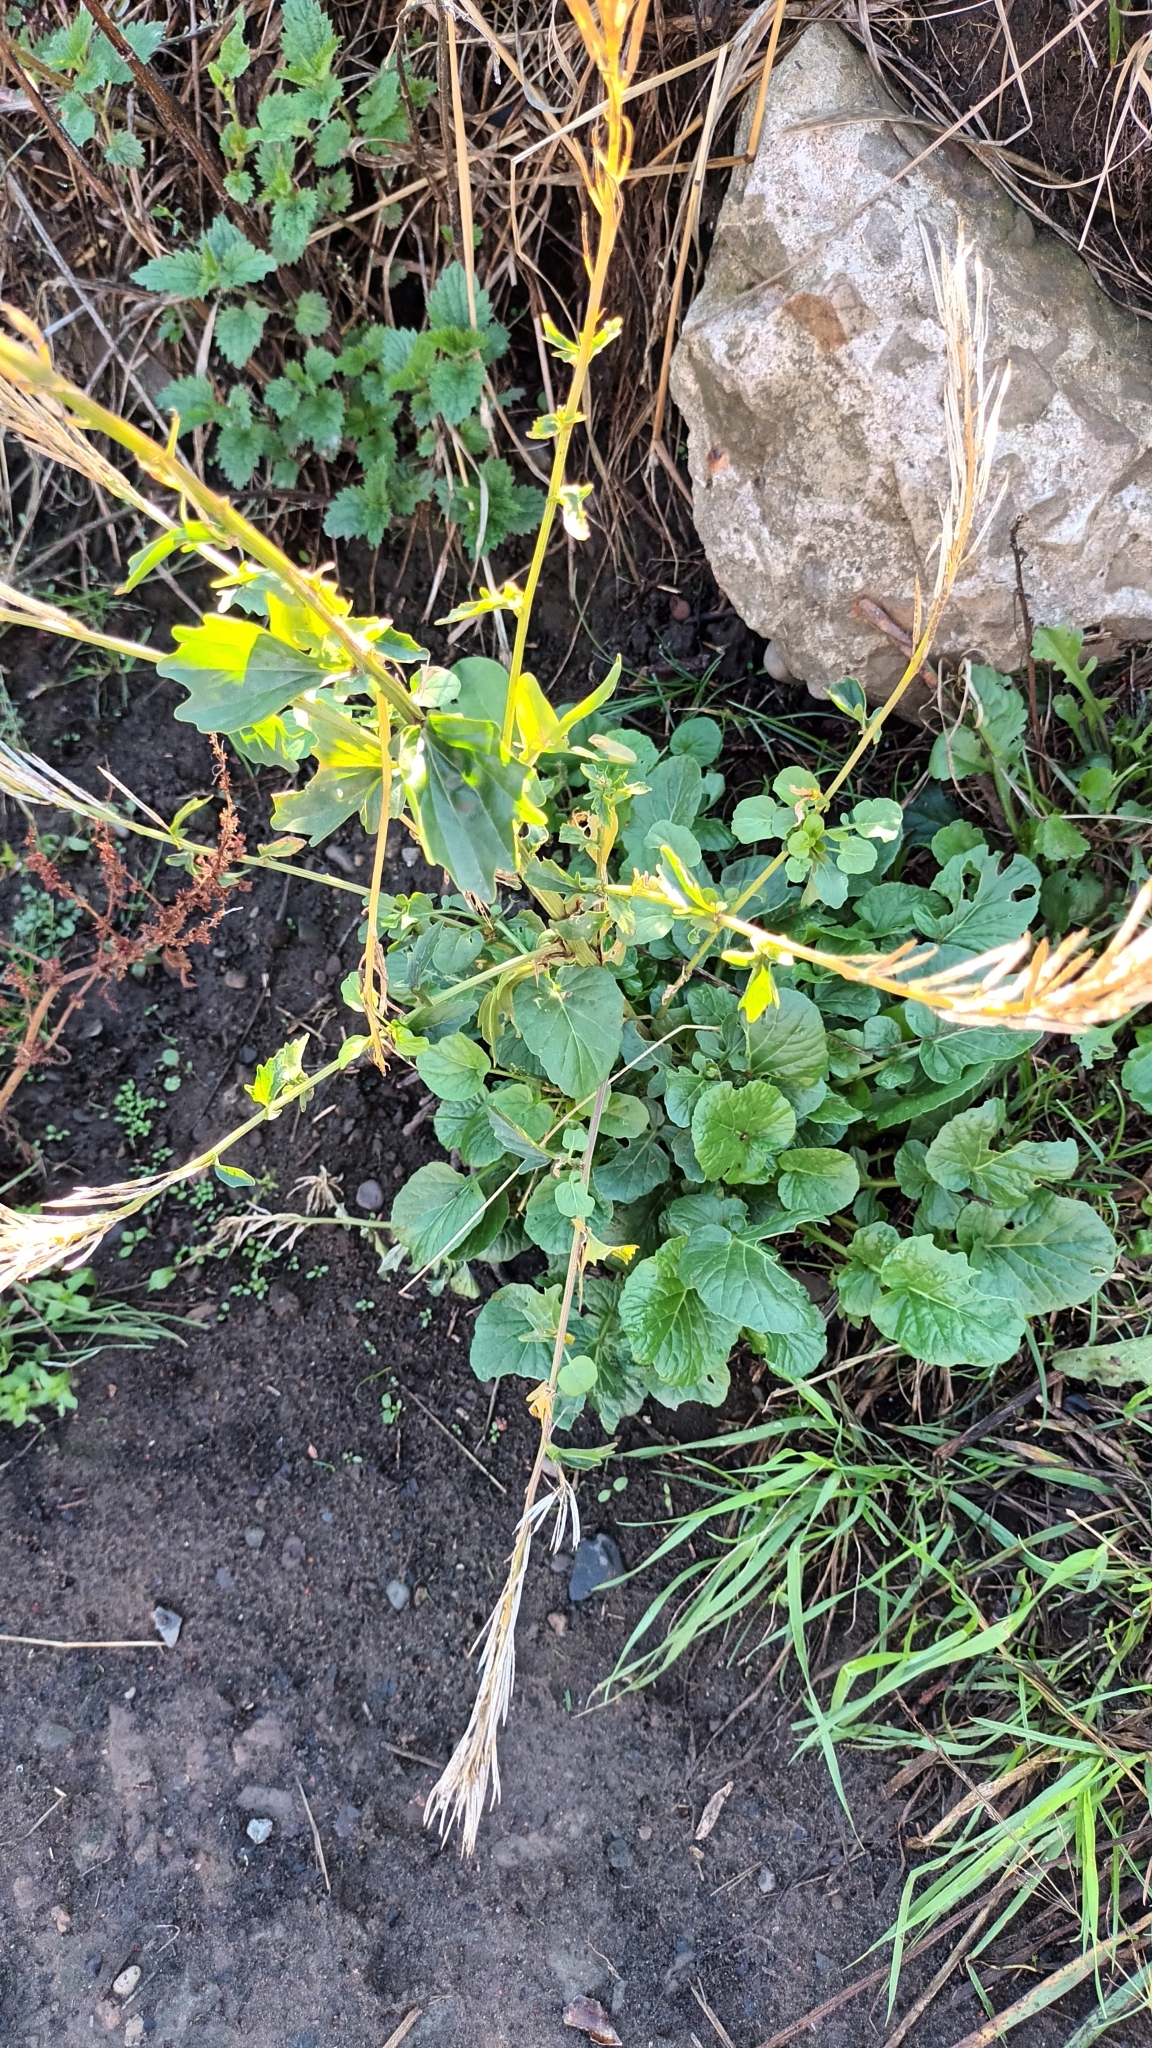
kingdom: Plantae
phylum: Tracheophyta
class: Magnoliopsida
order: Brassicales
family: Brassicaceae
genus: Barbarea
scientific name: Barbarea vulgaris
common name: Cressy-greens
